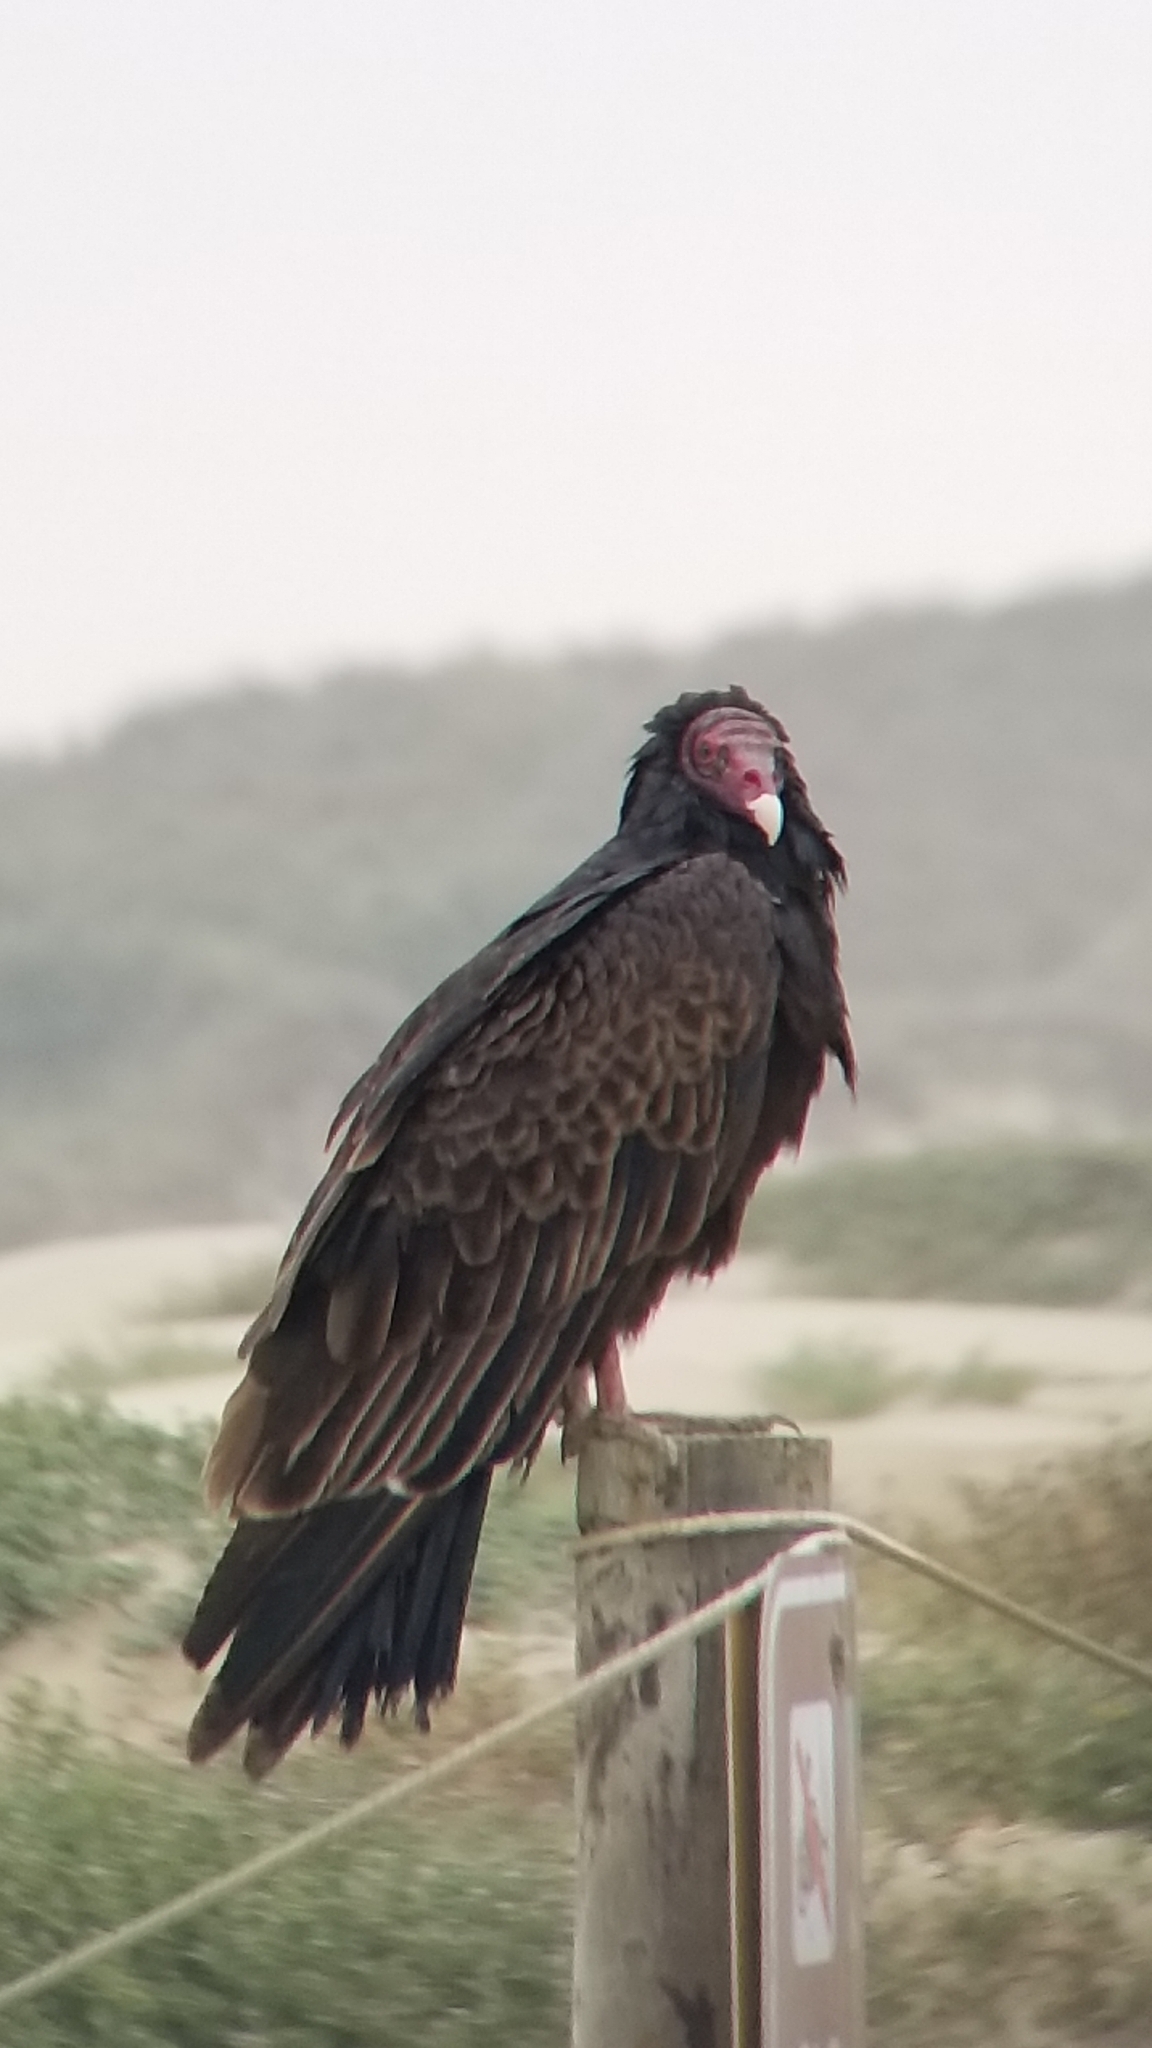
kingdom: Animalia
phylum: Chordata
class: Aves
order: Accipitriformes
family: Cathartidae
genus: Cathartes
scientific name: Cathartes aura
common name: Turkey vulture
